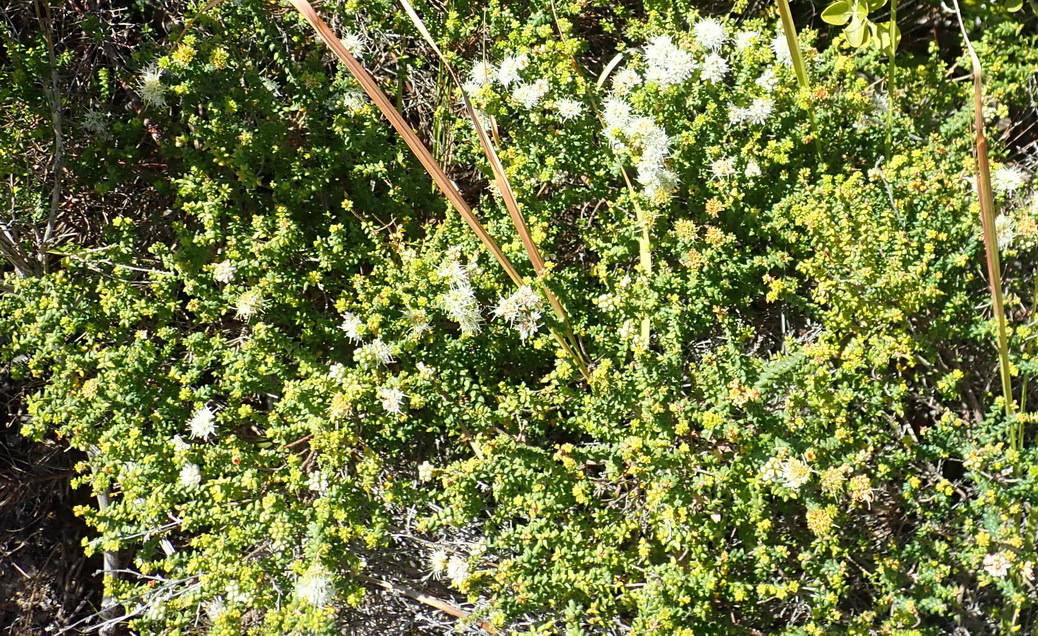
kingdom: Plantae
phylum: Tracheophyta
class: Magnoliopsida
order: Sapindales
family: Rutaceae
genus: Agathosma
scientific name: Agathosma apiculata
